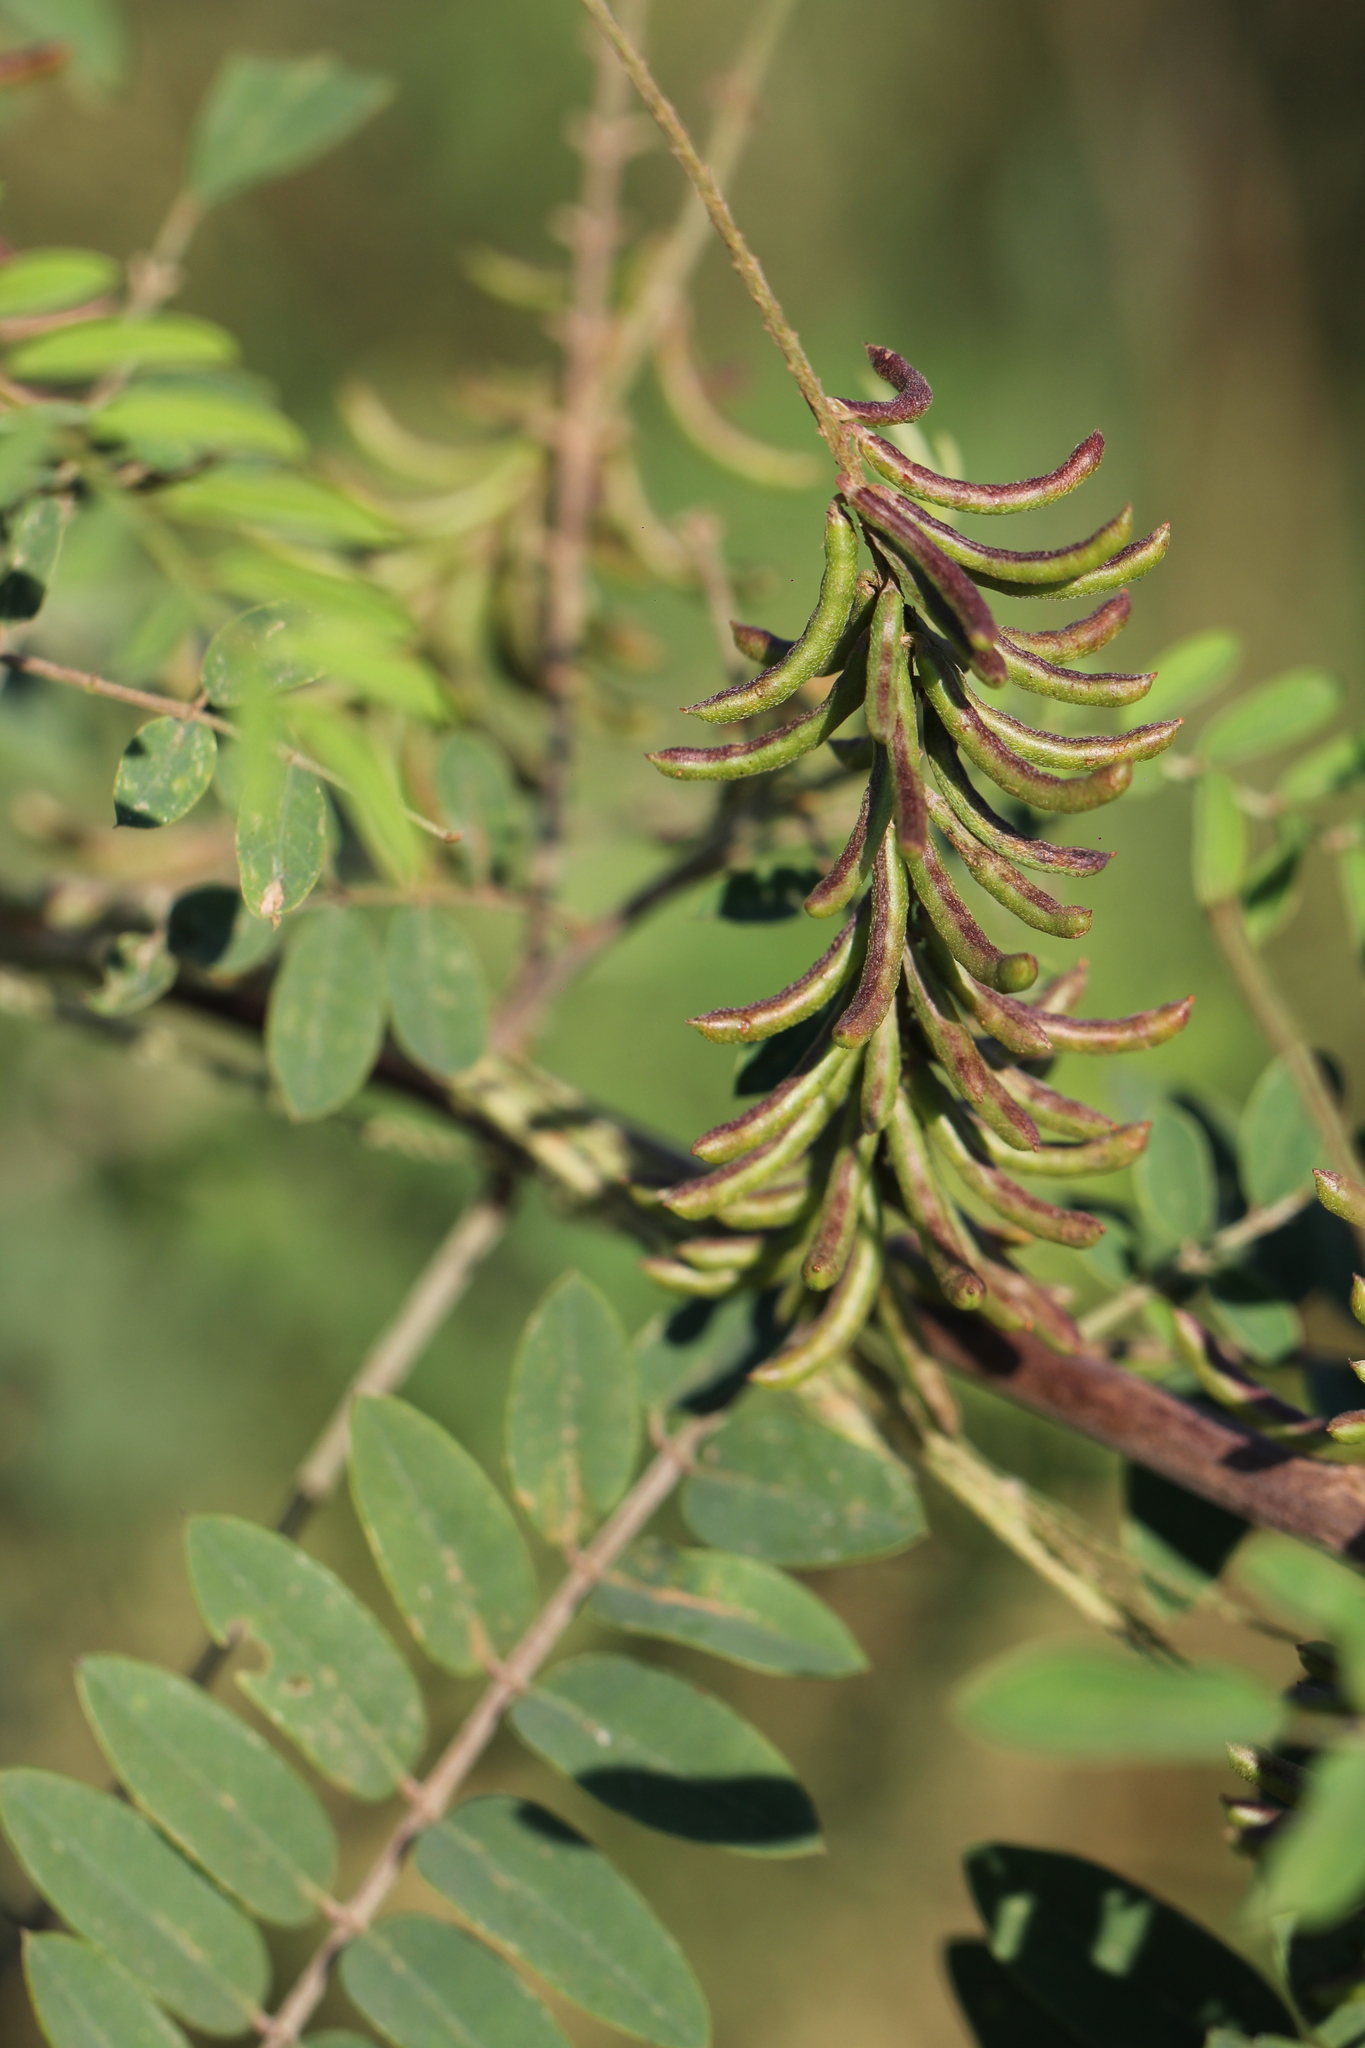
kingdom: Plantae
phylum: Tracheophyta
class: Magnoliopsida
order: Fabales
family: Fabaceae
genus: Indigofera
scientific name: Indigofera suffruticosa
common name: Anil de pasto
